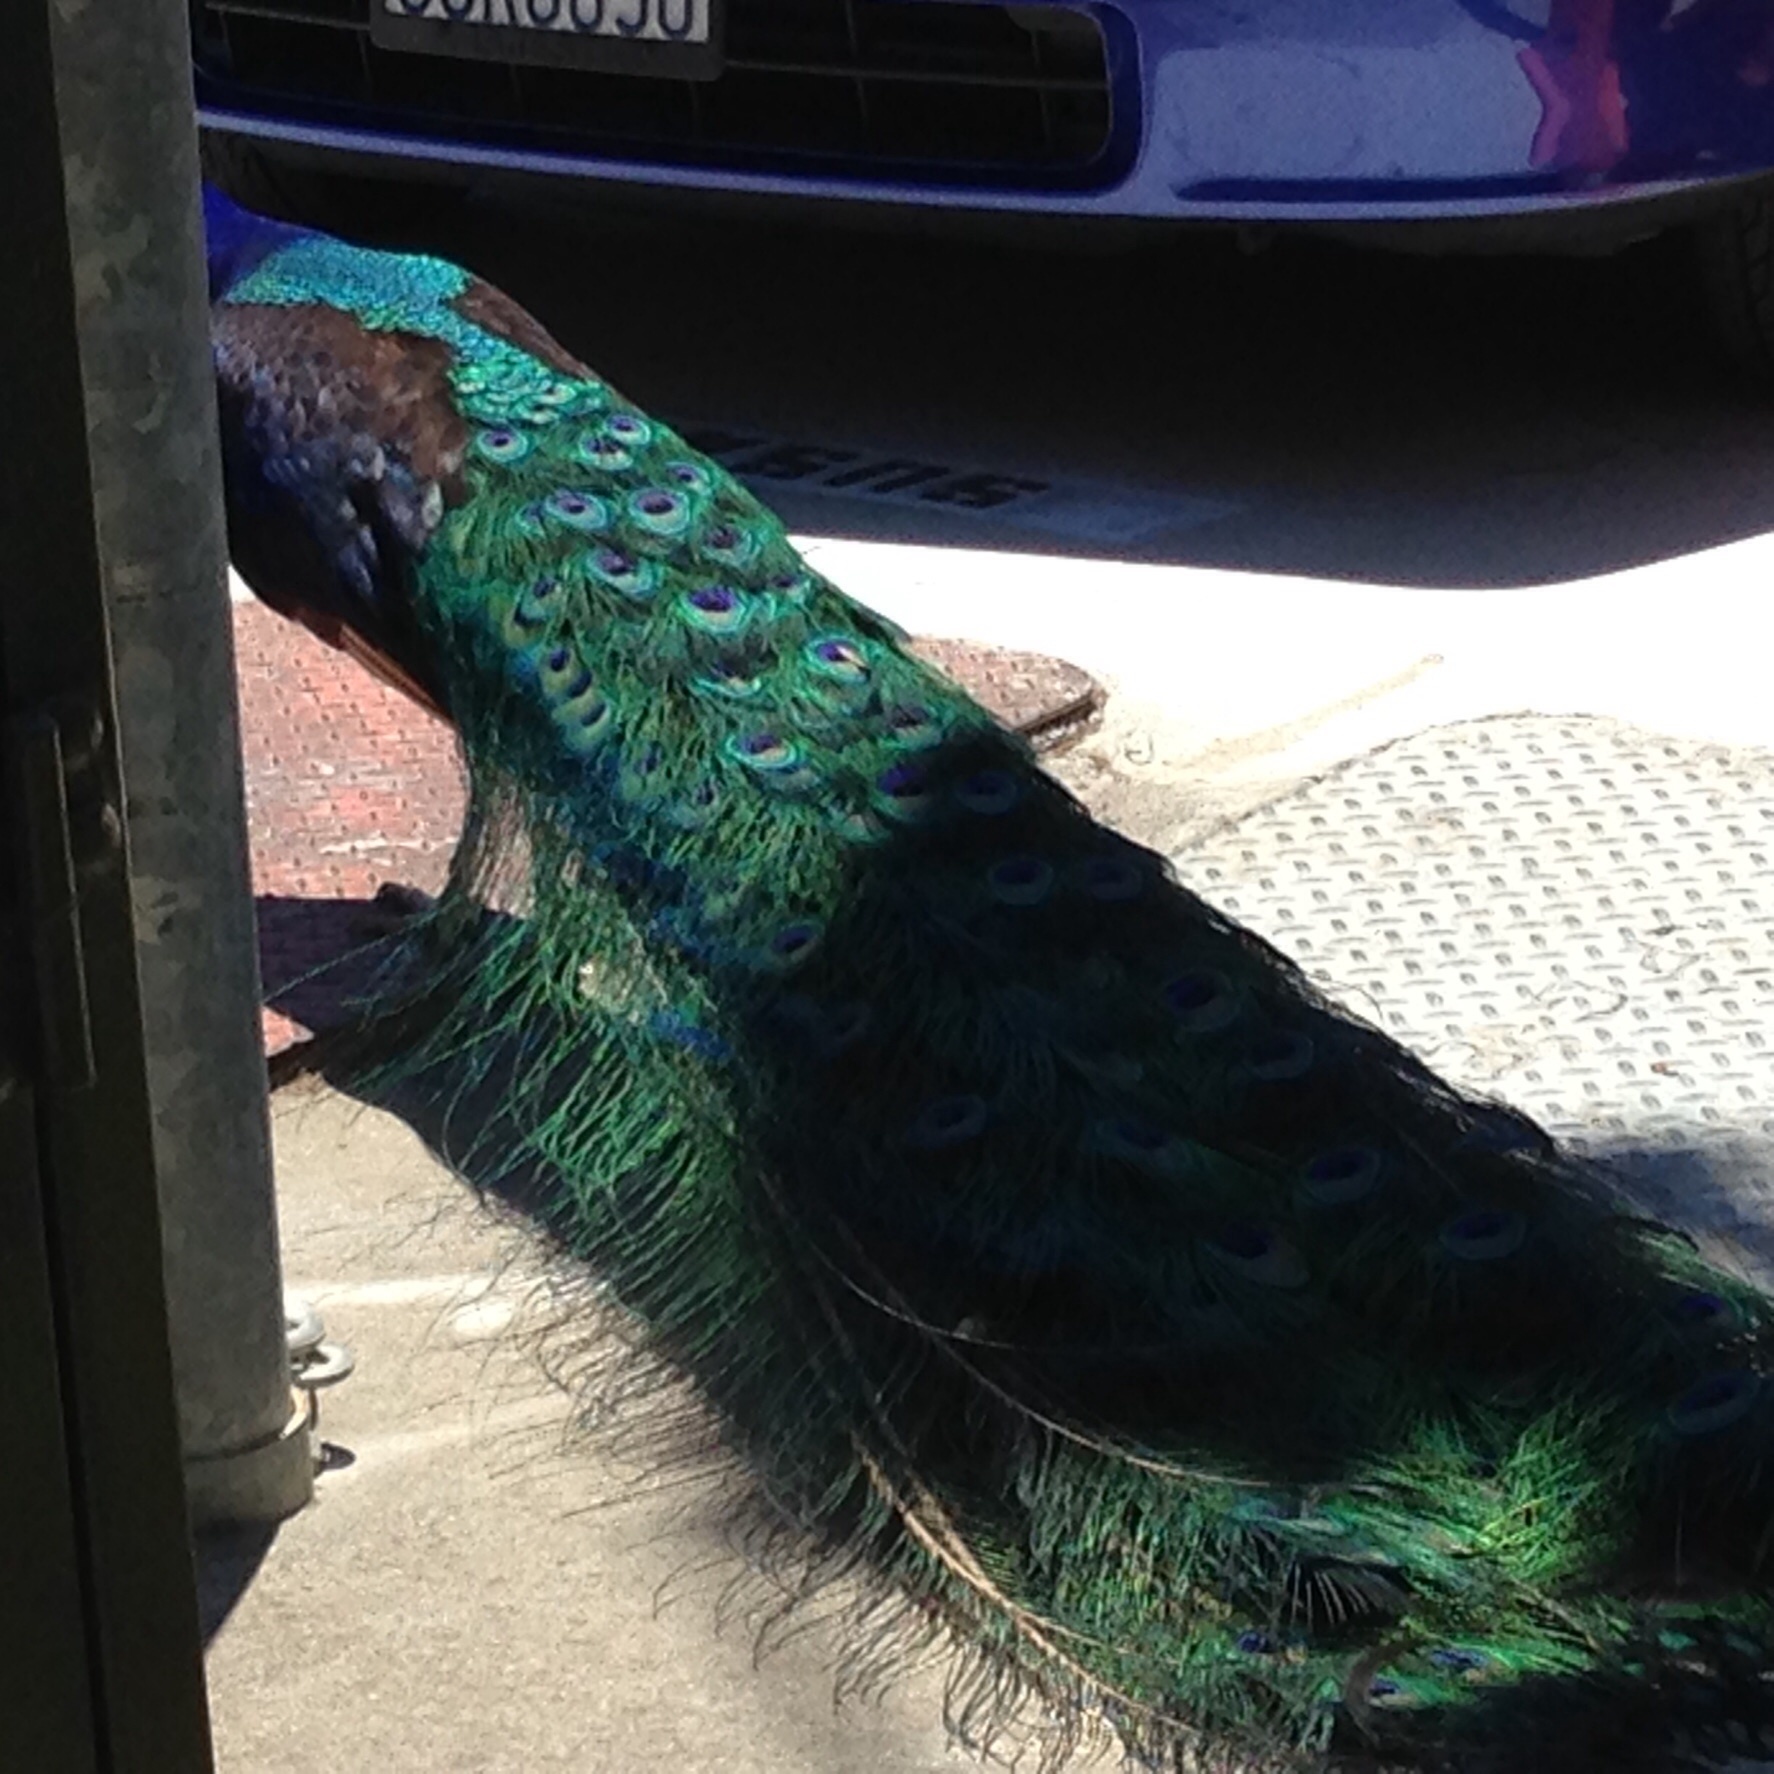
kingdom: Animalia
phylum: Chordata
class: Aves
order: Galliformes
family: Phasianidae
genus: Pavo
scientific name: Pavo cristatus
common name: Indian peafowl
